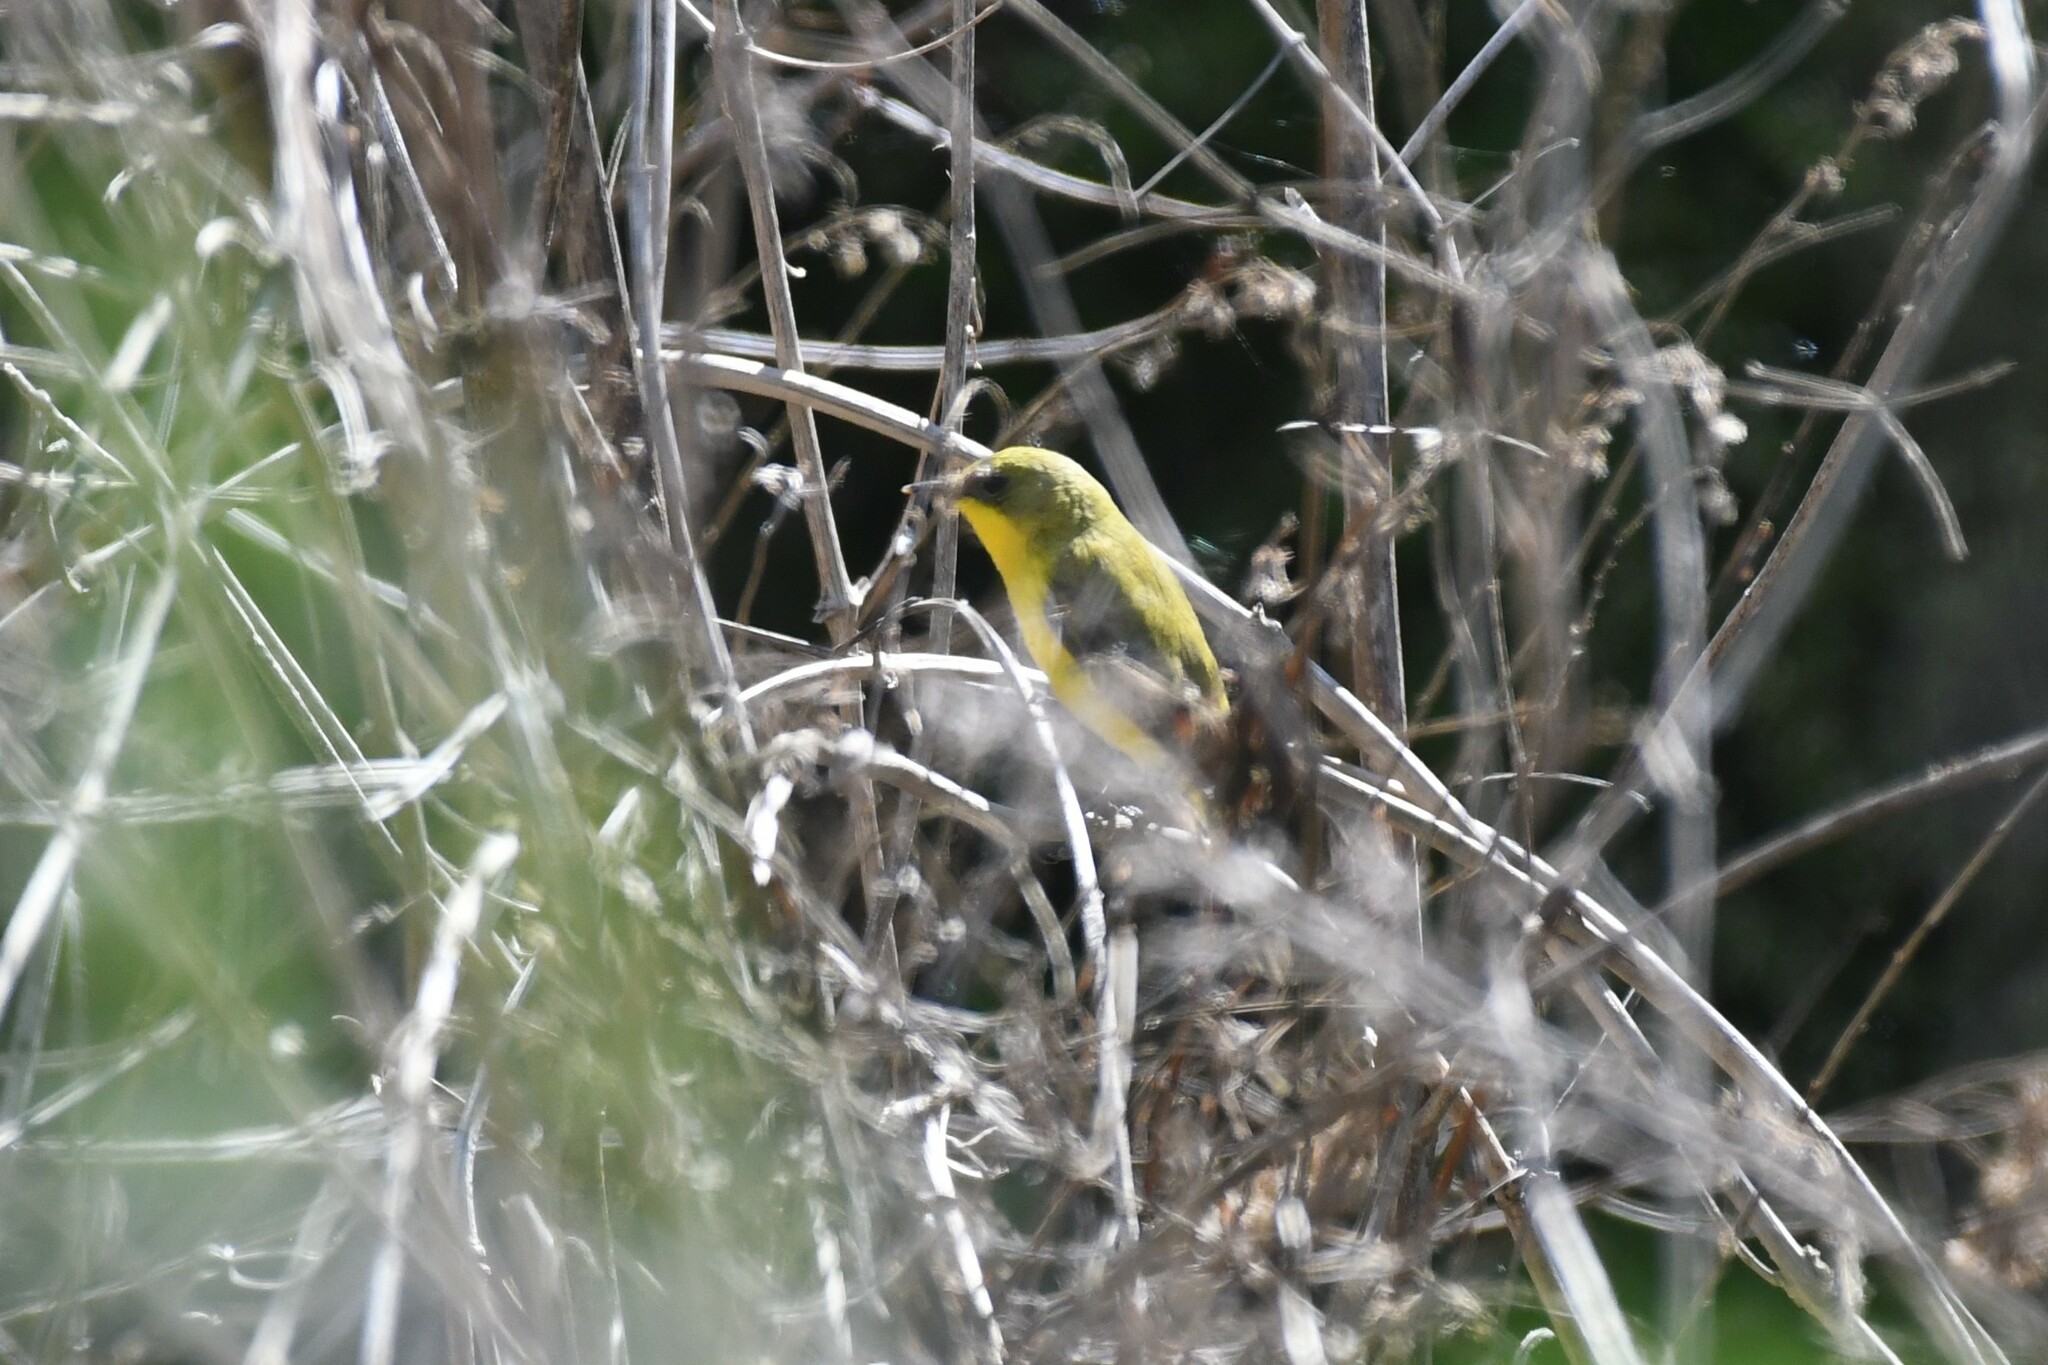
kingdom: Animalia
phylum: Chordata
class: Aves
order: Passeriformes
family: Tyrannidae
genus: Pseudocolopteryx
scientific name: Pseudocolopteryx acutipennis
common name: Subtropical doradito
